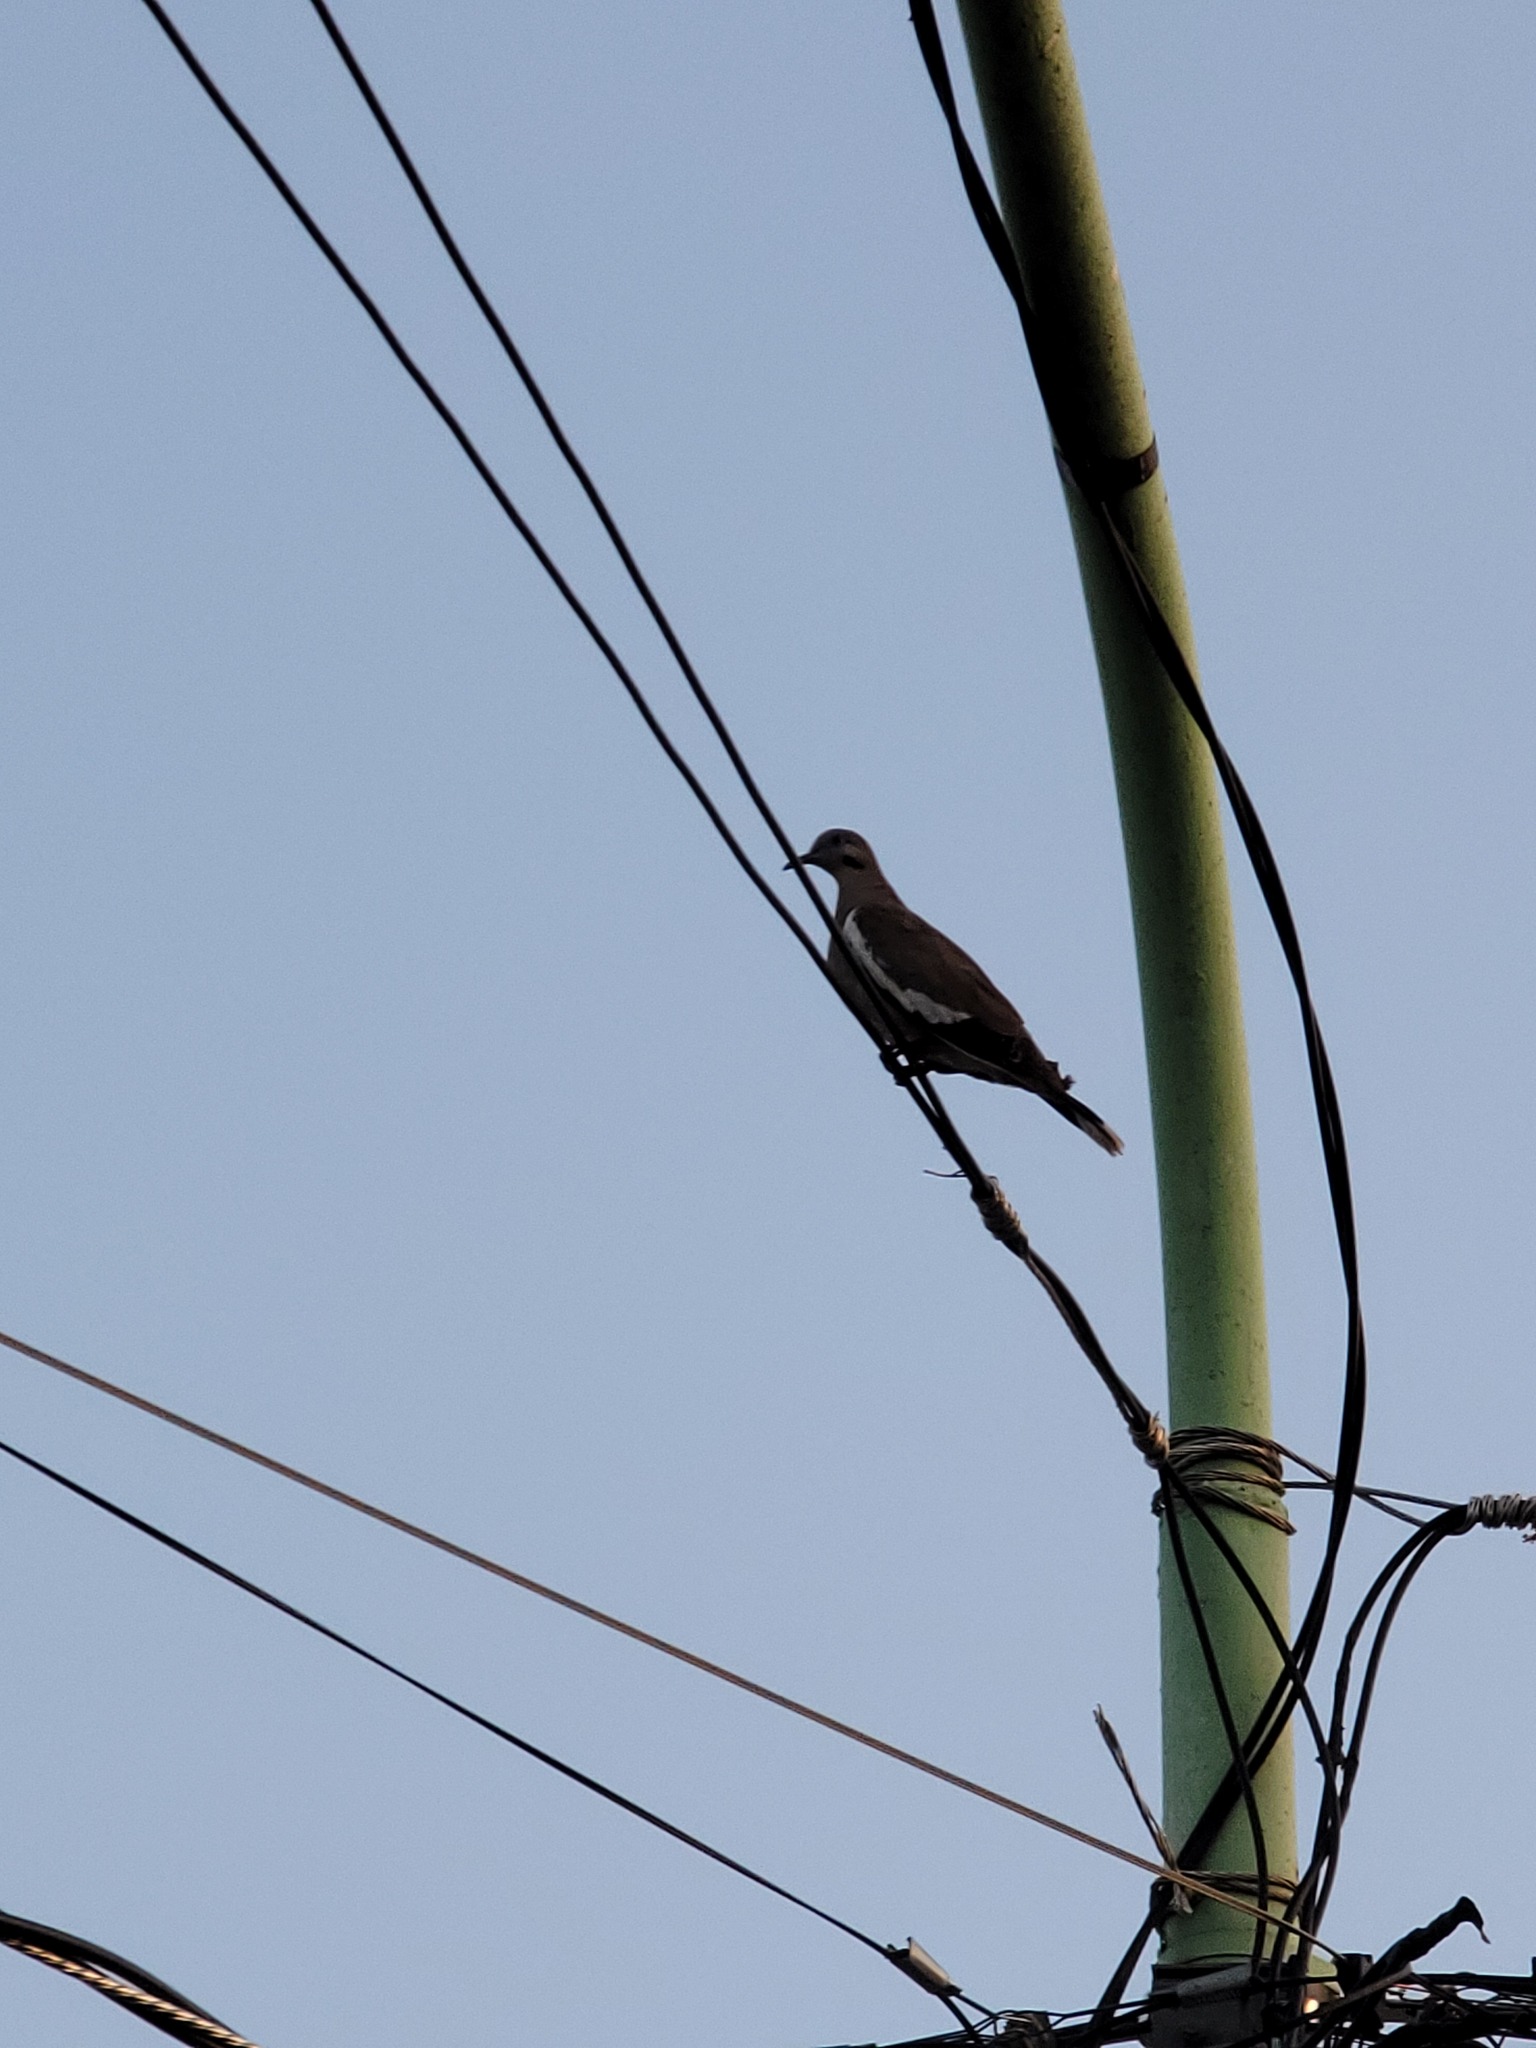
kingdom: Animalia
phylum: Chordata
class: Aves
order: Columbiformes
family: Columbidae
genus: Zenaida
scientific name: Zenaida asiatica
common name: White-winged dove
